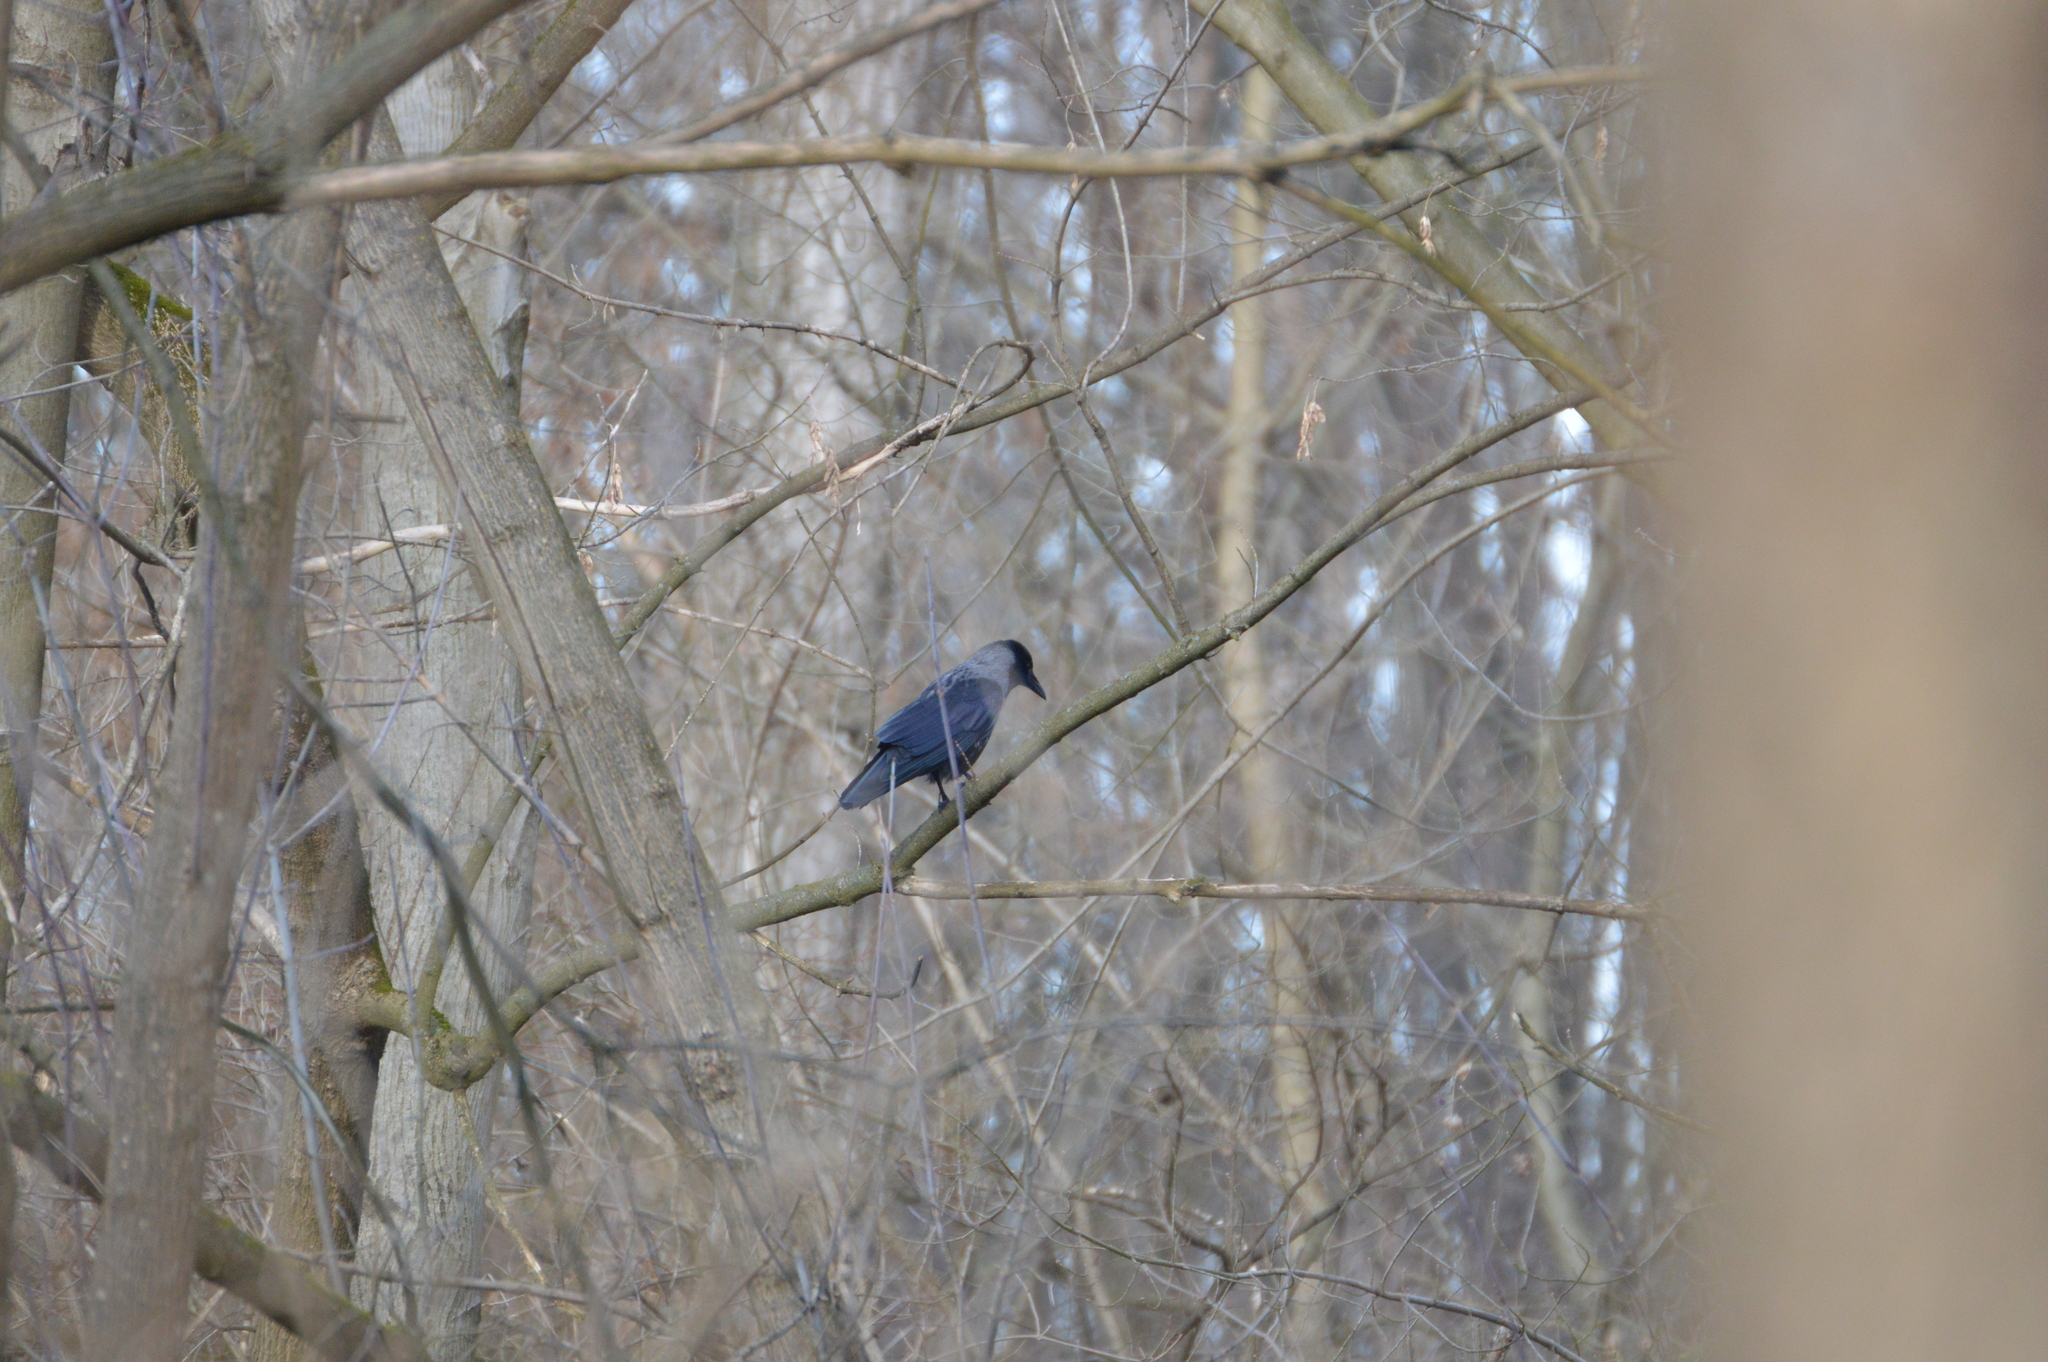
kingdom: Animalia
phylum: Chordata
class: Aves
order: Passeriformes
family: Corvidae
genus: Corvus
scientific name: Corvus
